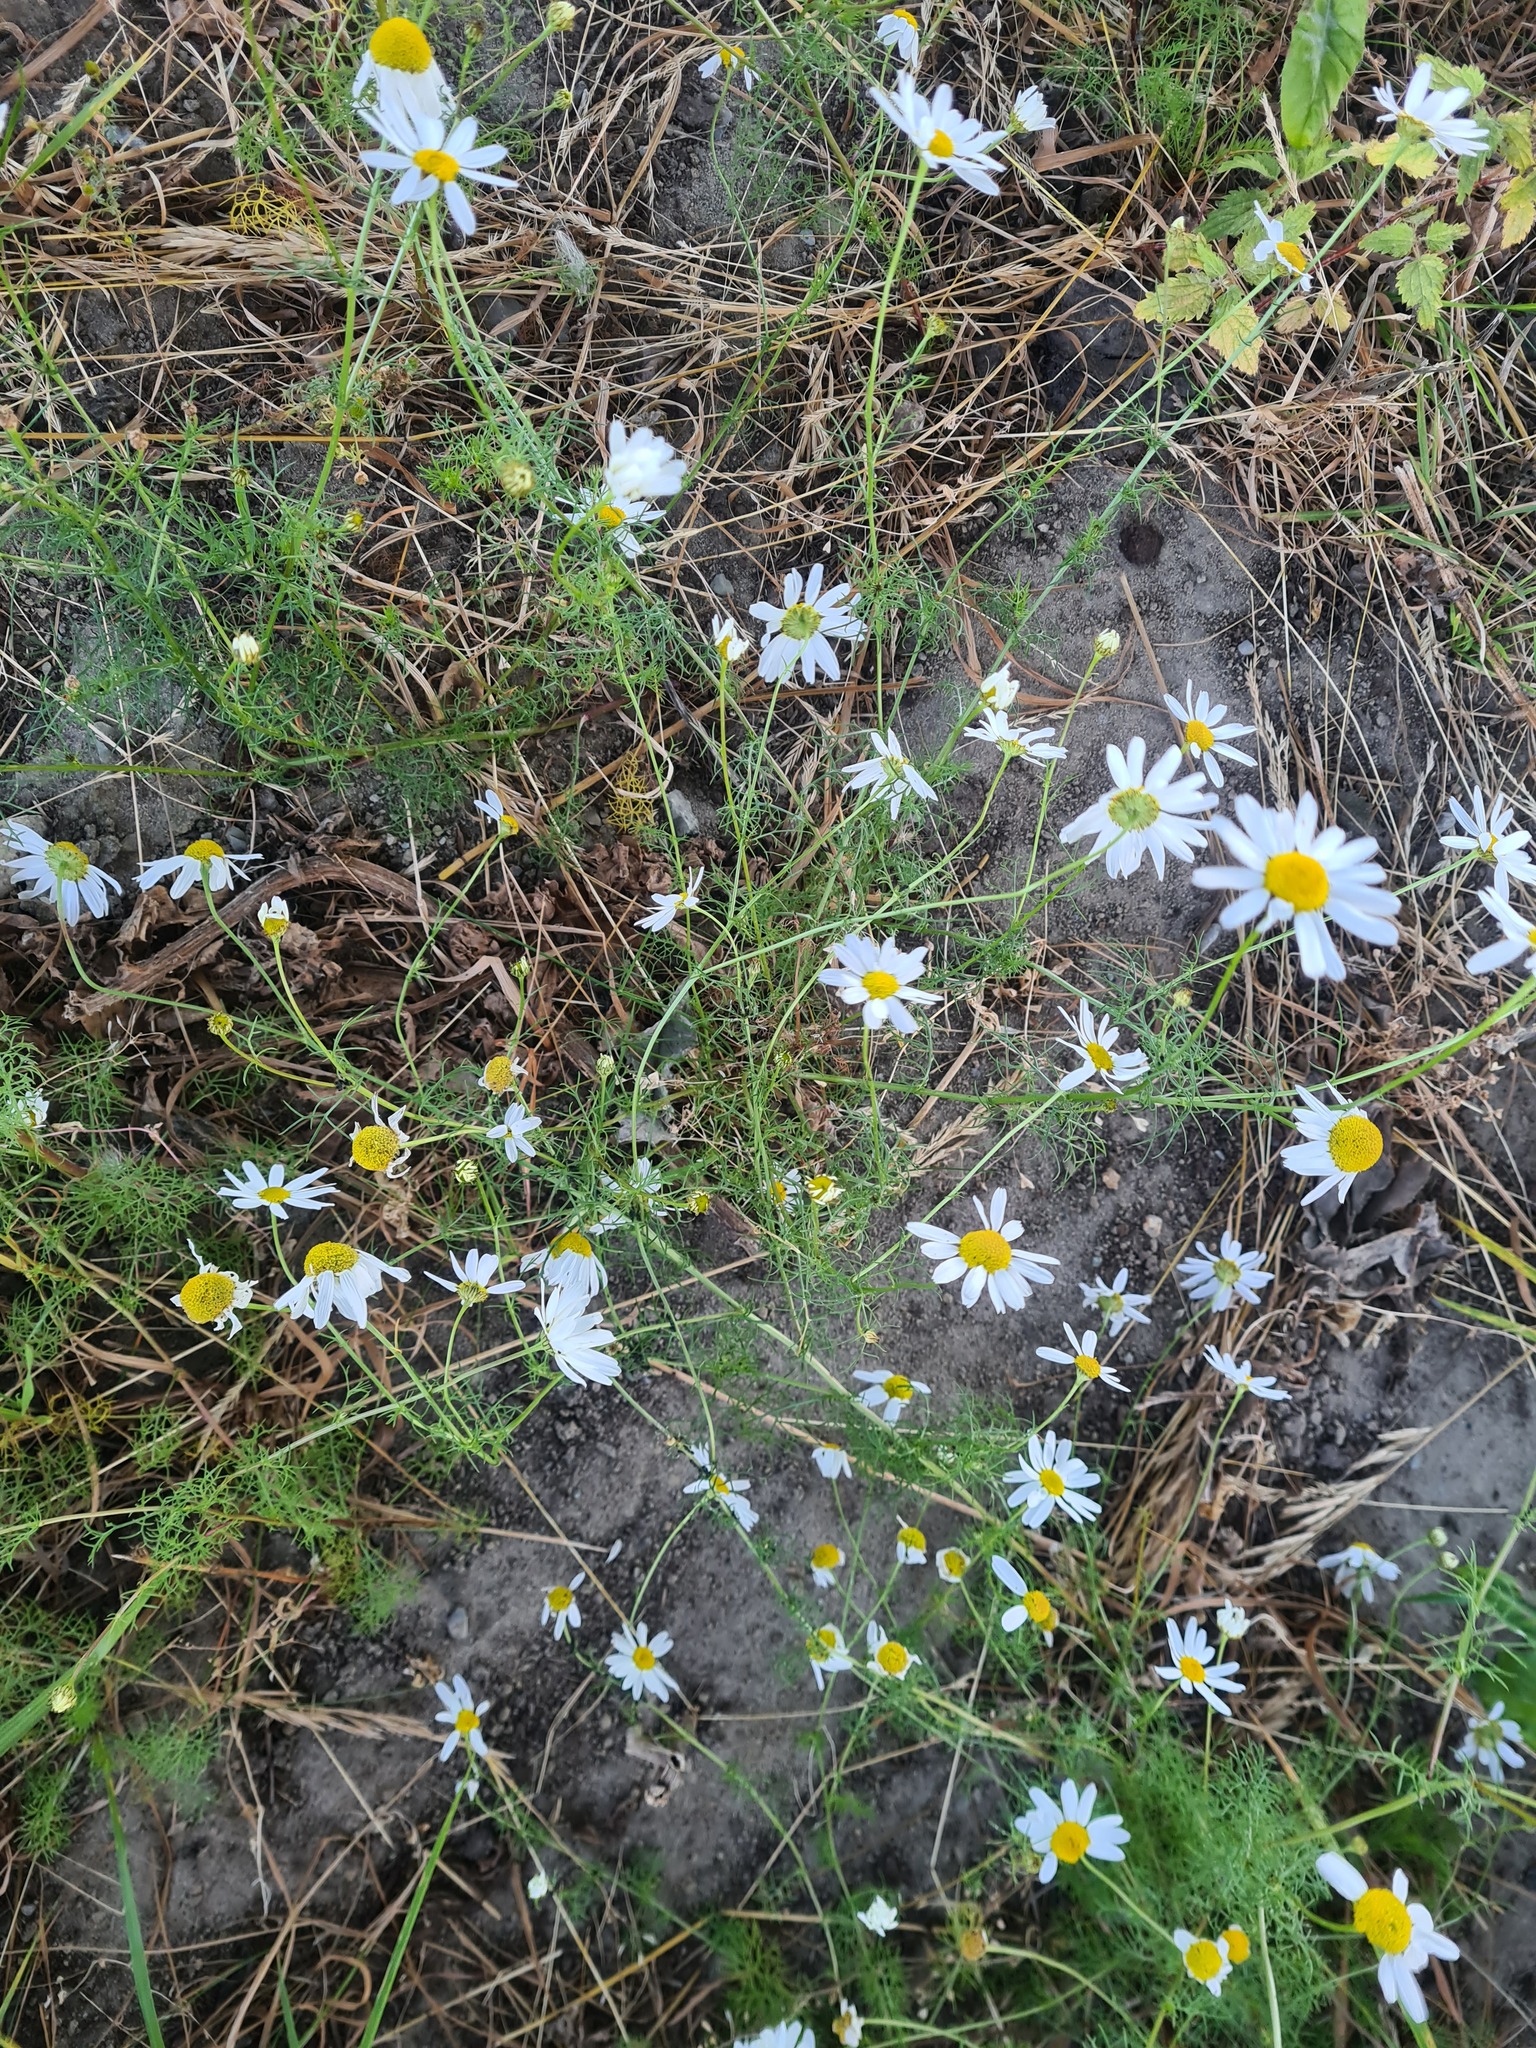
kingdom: Plantae
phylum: Tracheophyta
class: Magnoliopsida
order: Asterales
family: Asteraceae
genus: Tripleurospermum
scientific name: Tripleurospermum inodorum
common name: Scentless mayweed
